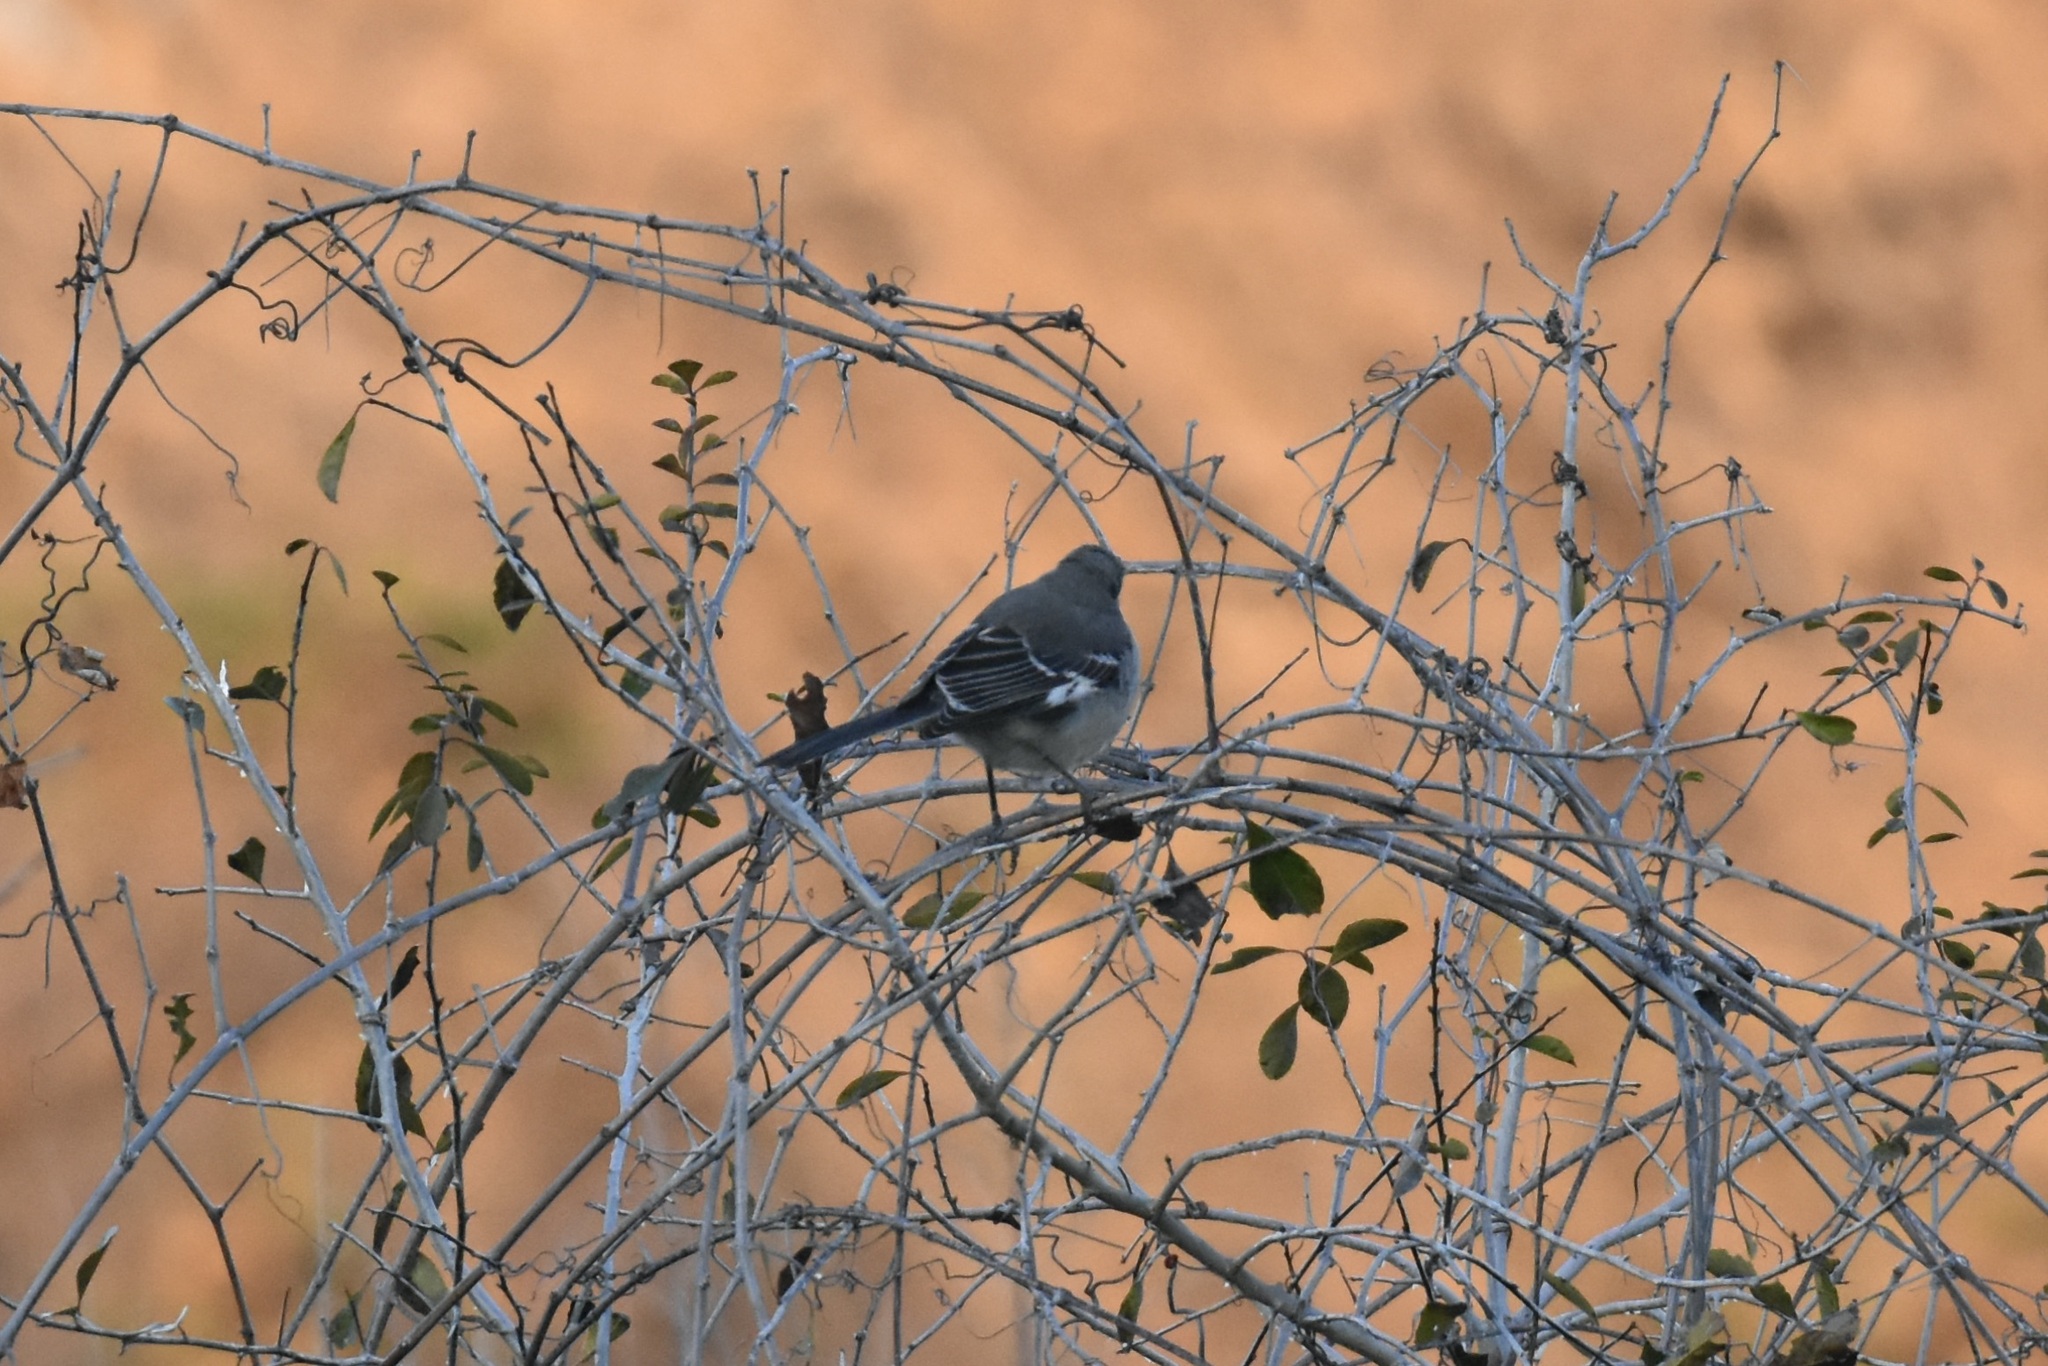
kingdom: Animalia
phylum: Chordata
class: Aves
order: Passeriformes
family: Mimidae
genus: Mimus
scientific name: Mimus polyglottos
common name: Northern mockingbird
